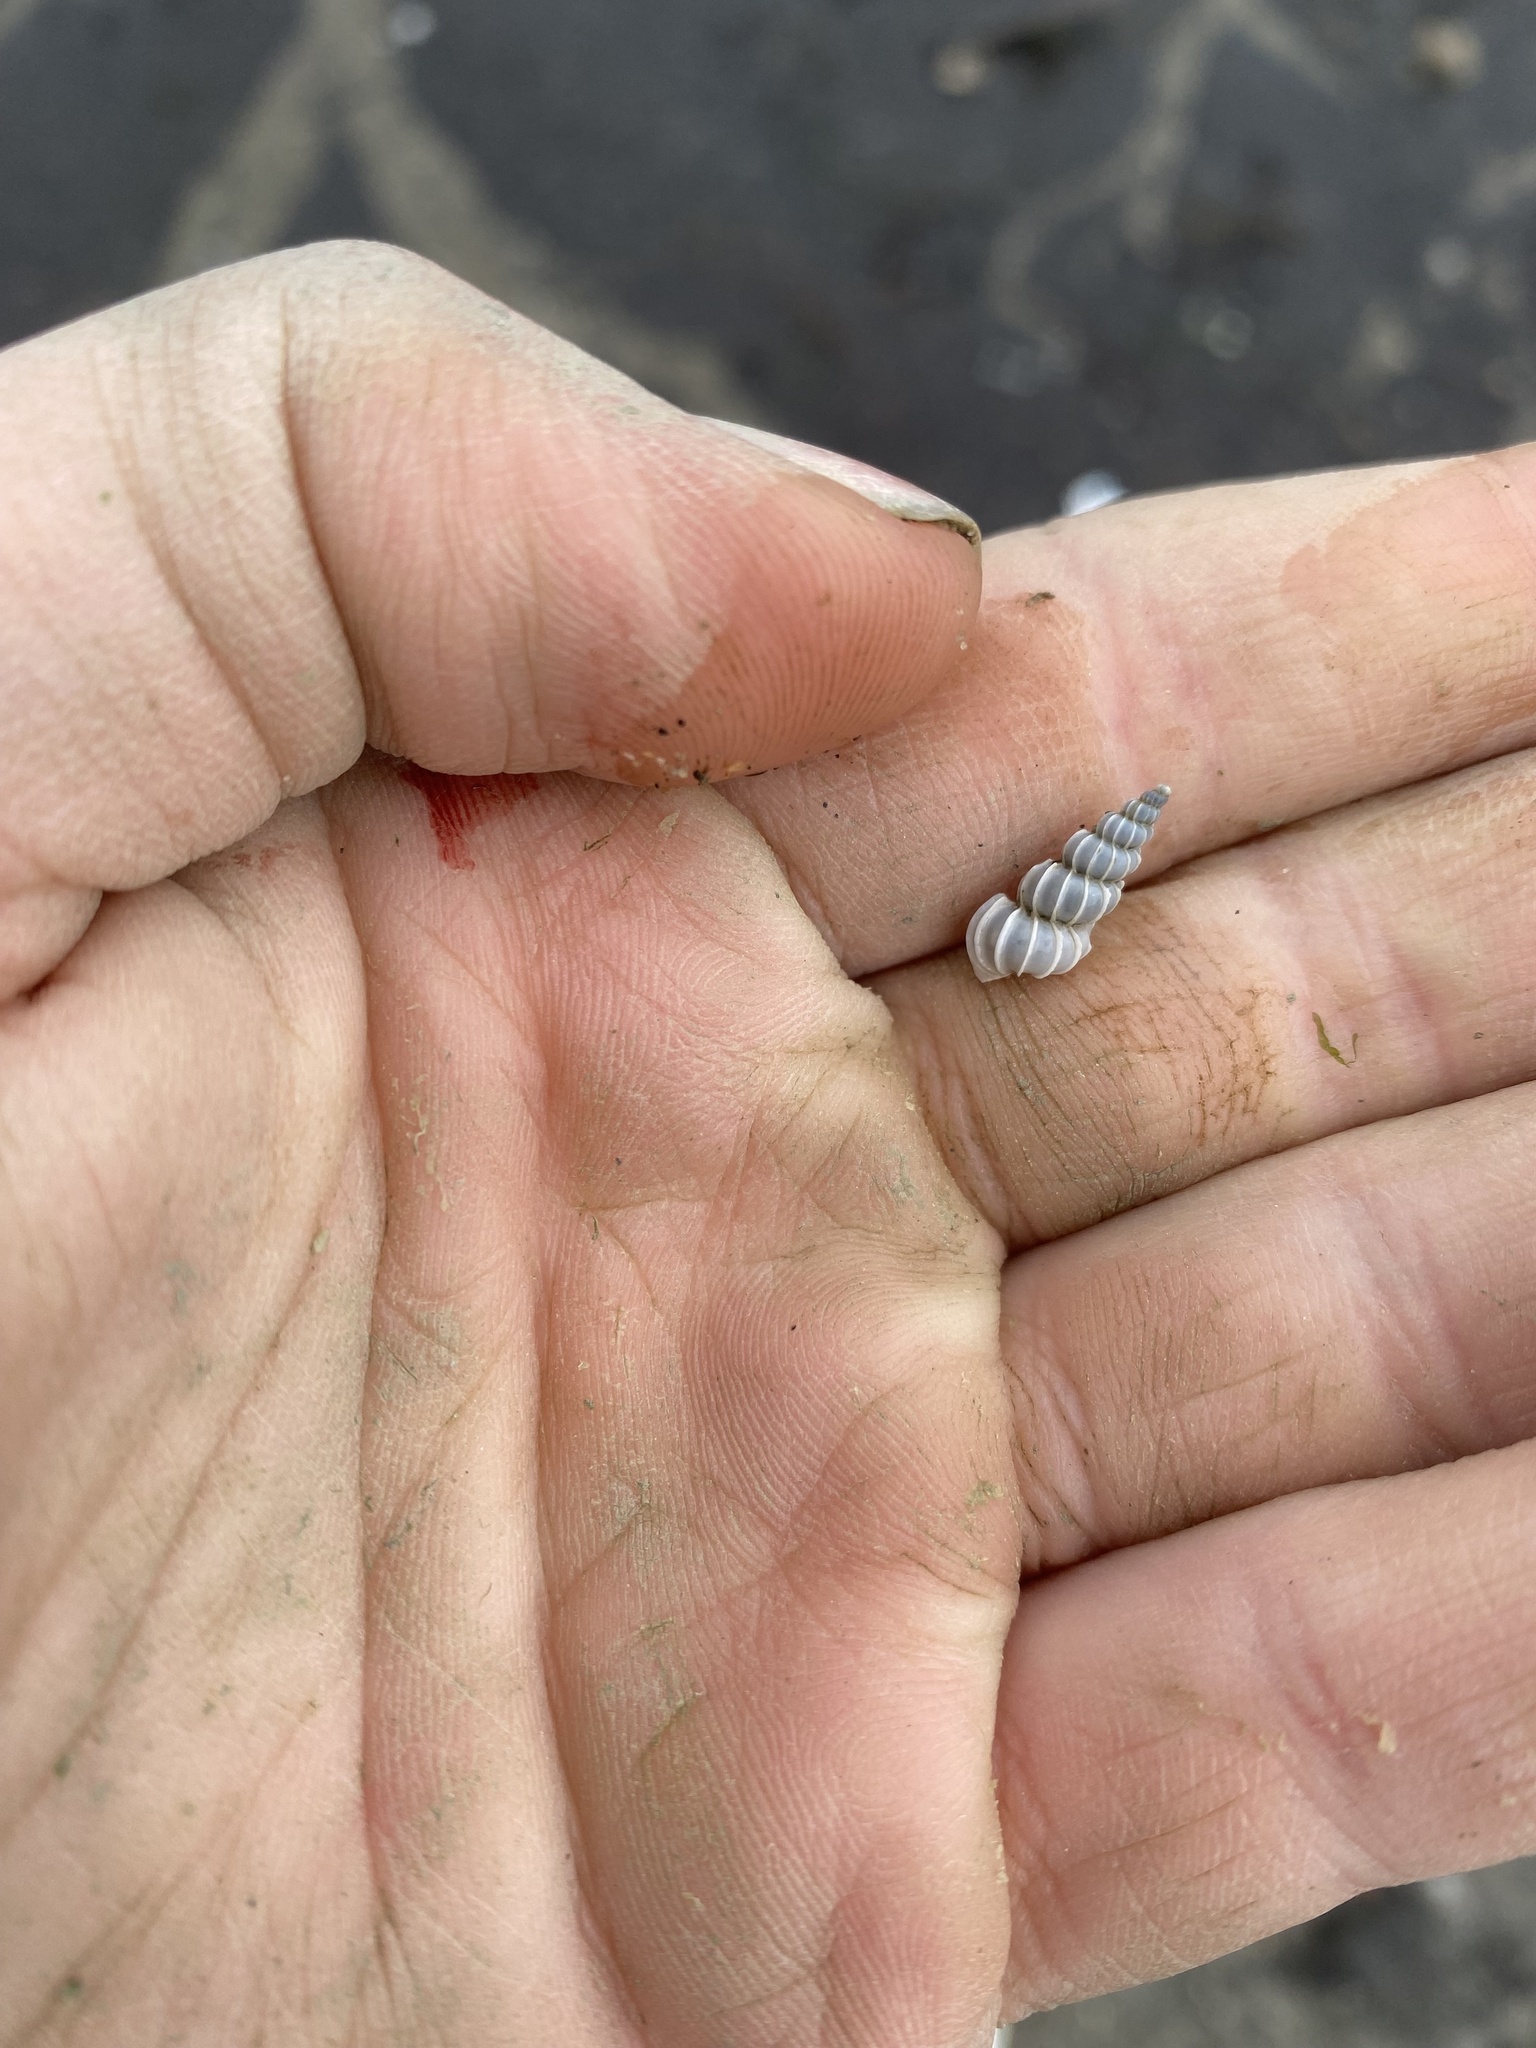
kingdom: Animalia
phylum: Mollusca
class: Gastropoda
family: Epitoniidae
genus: Epitonium
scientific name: Epitonium tinctum
